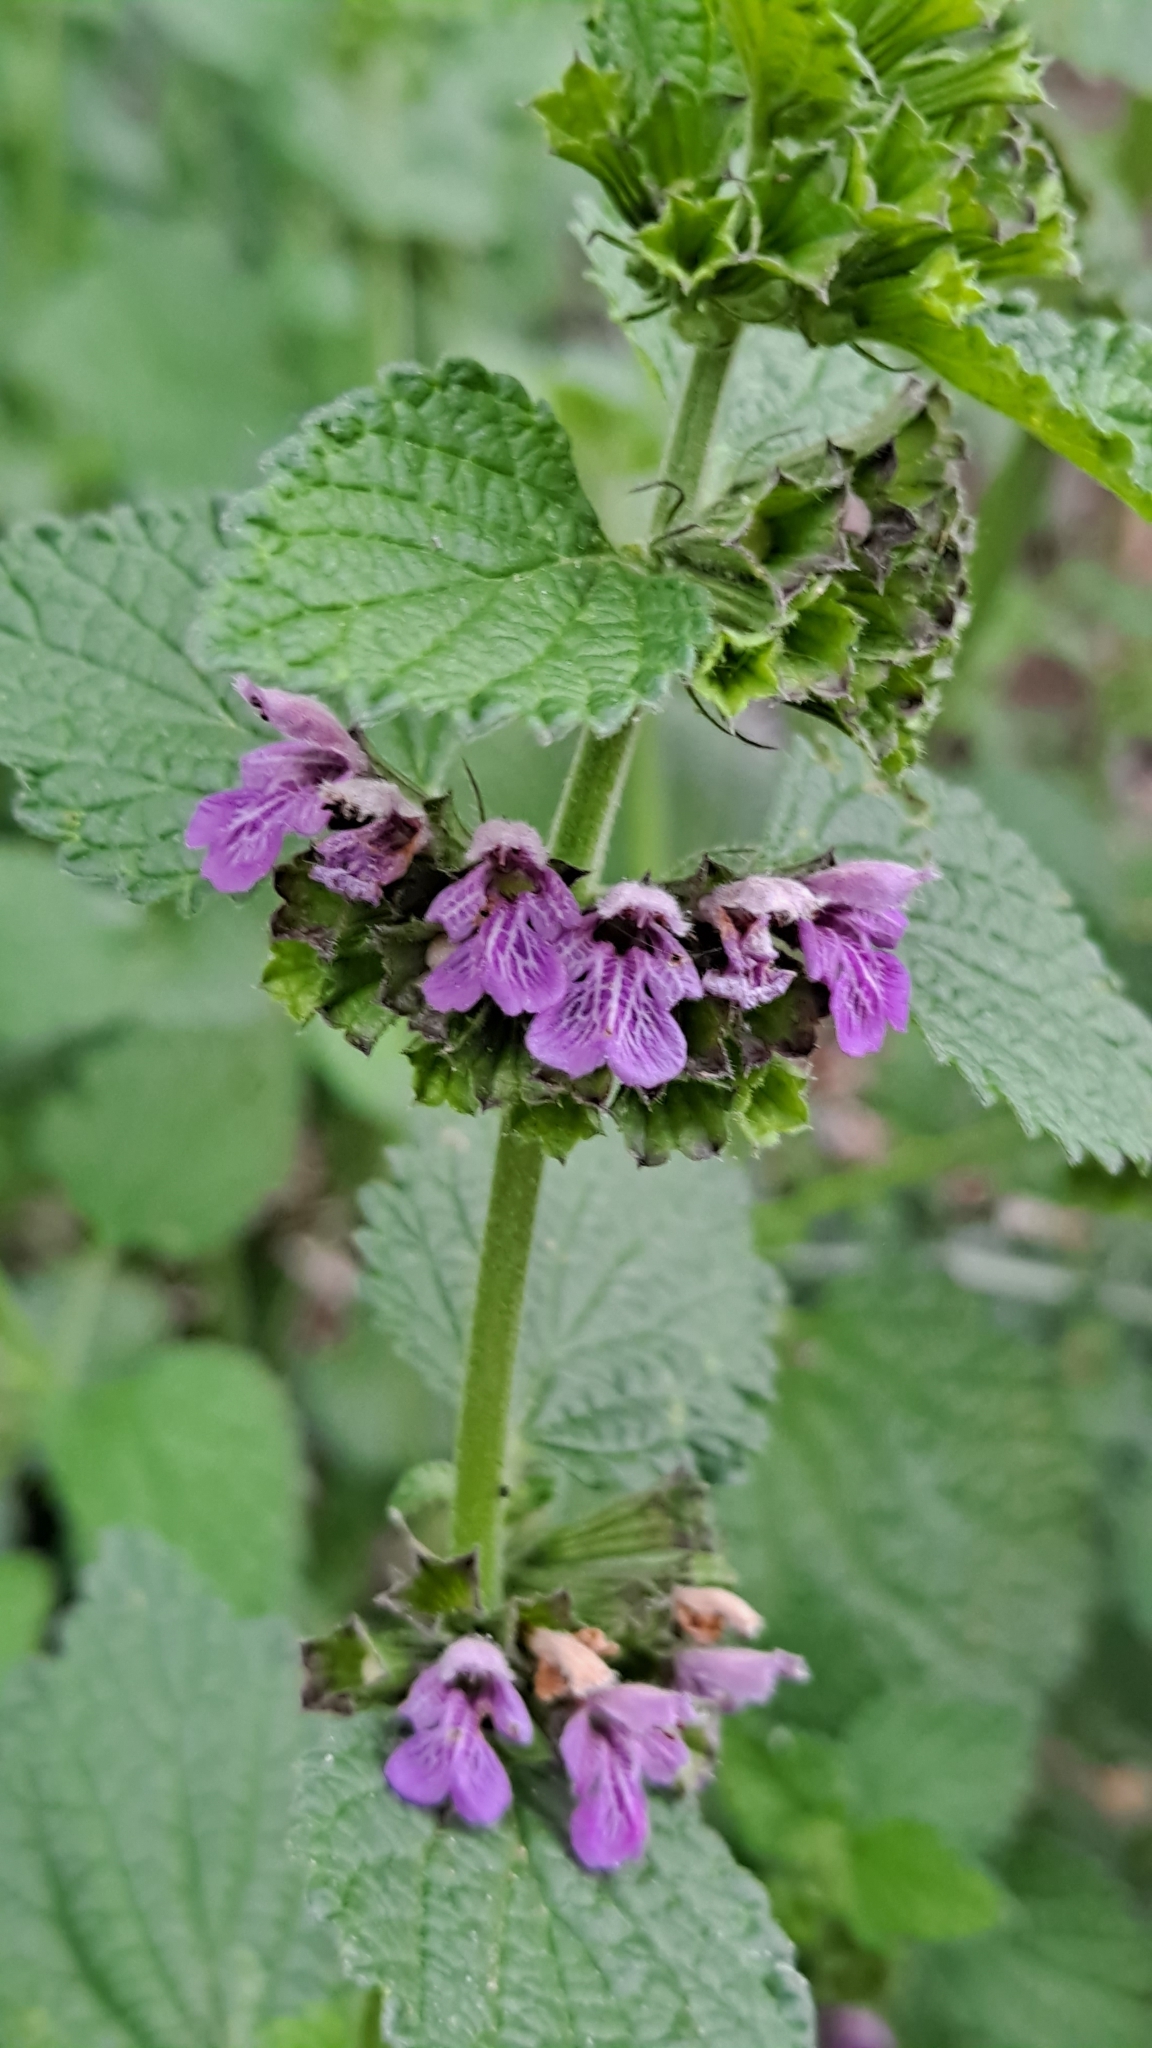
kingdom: Plantae
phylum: Tracheophyta
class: Magnoliopsida
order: Lamiales
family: Lamiaceae
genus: Ballota
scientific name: Ballota nigra
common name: Black horehound
